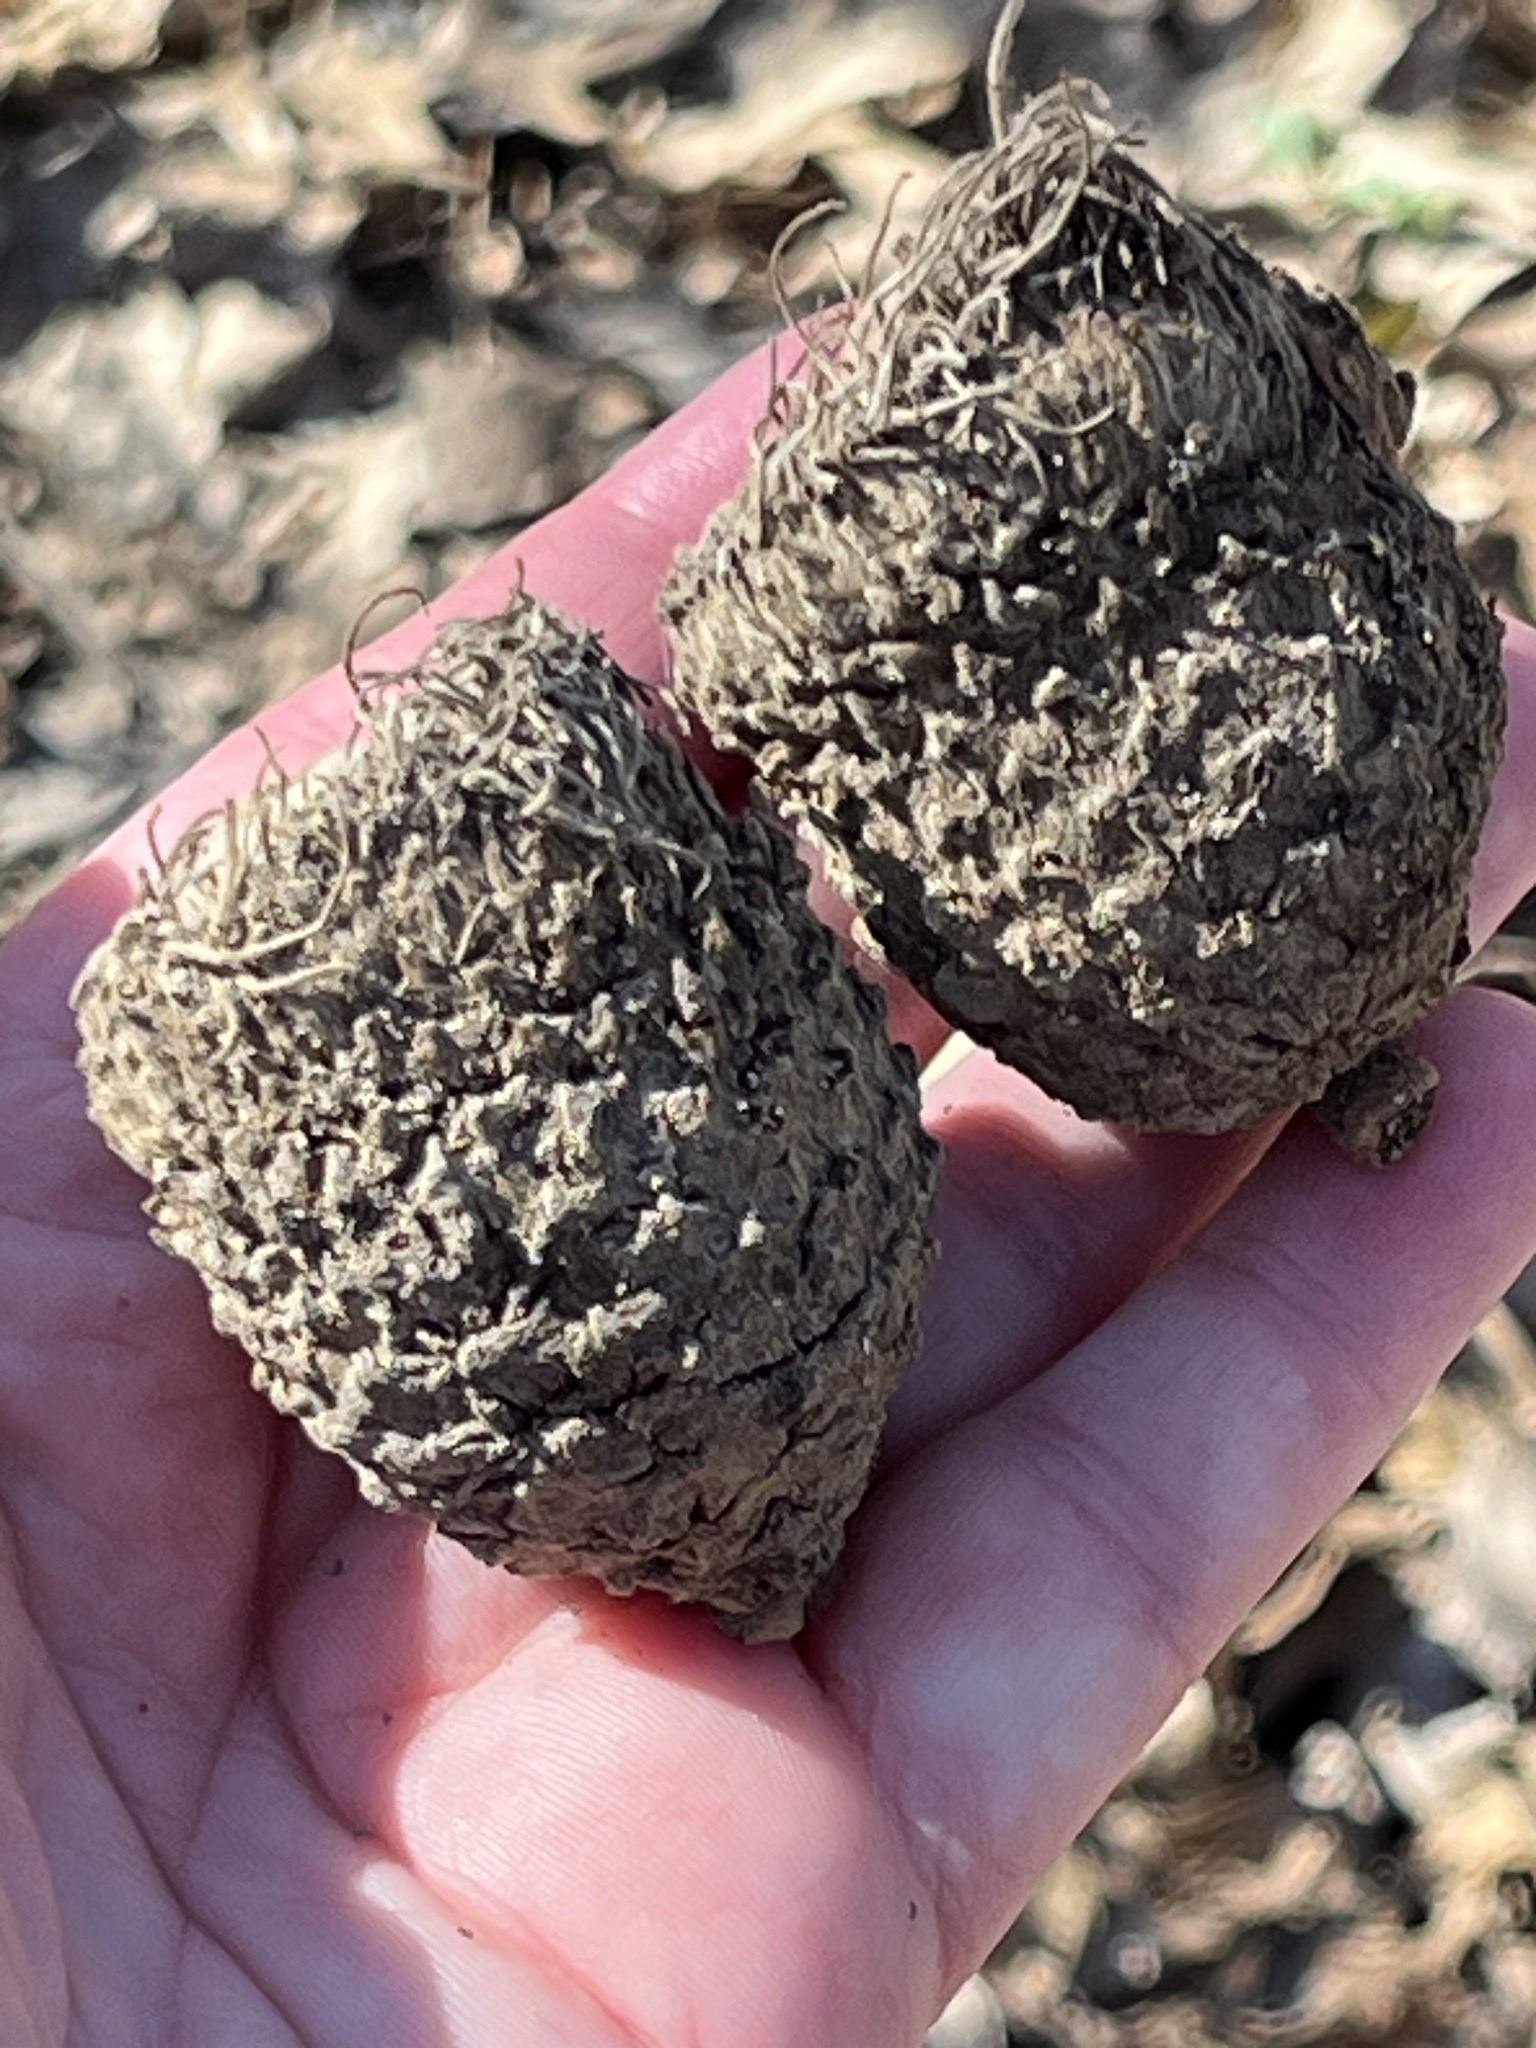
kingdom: Plantae
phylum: Tracheophyta
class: Magnoliopsida
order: Fagales
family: Fagaceae
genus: Quercus
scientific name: Quercus macrocarpa
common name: Bur oak
